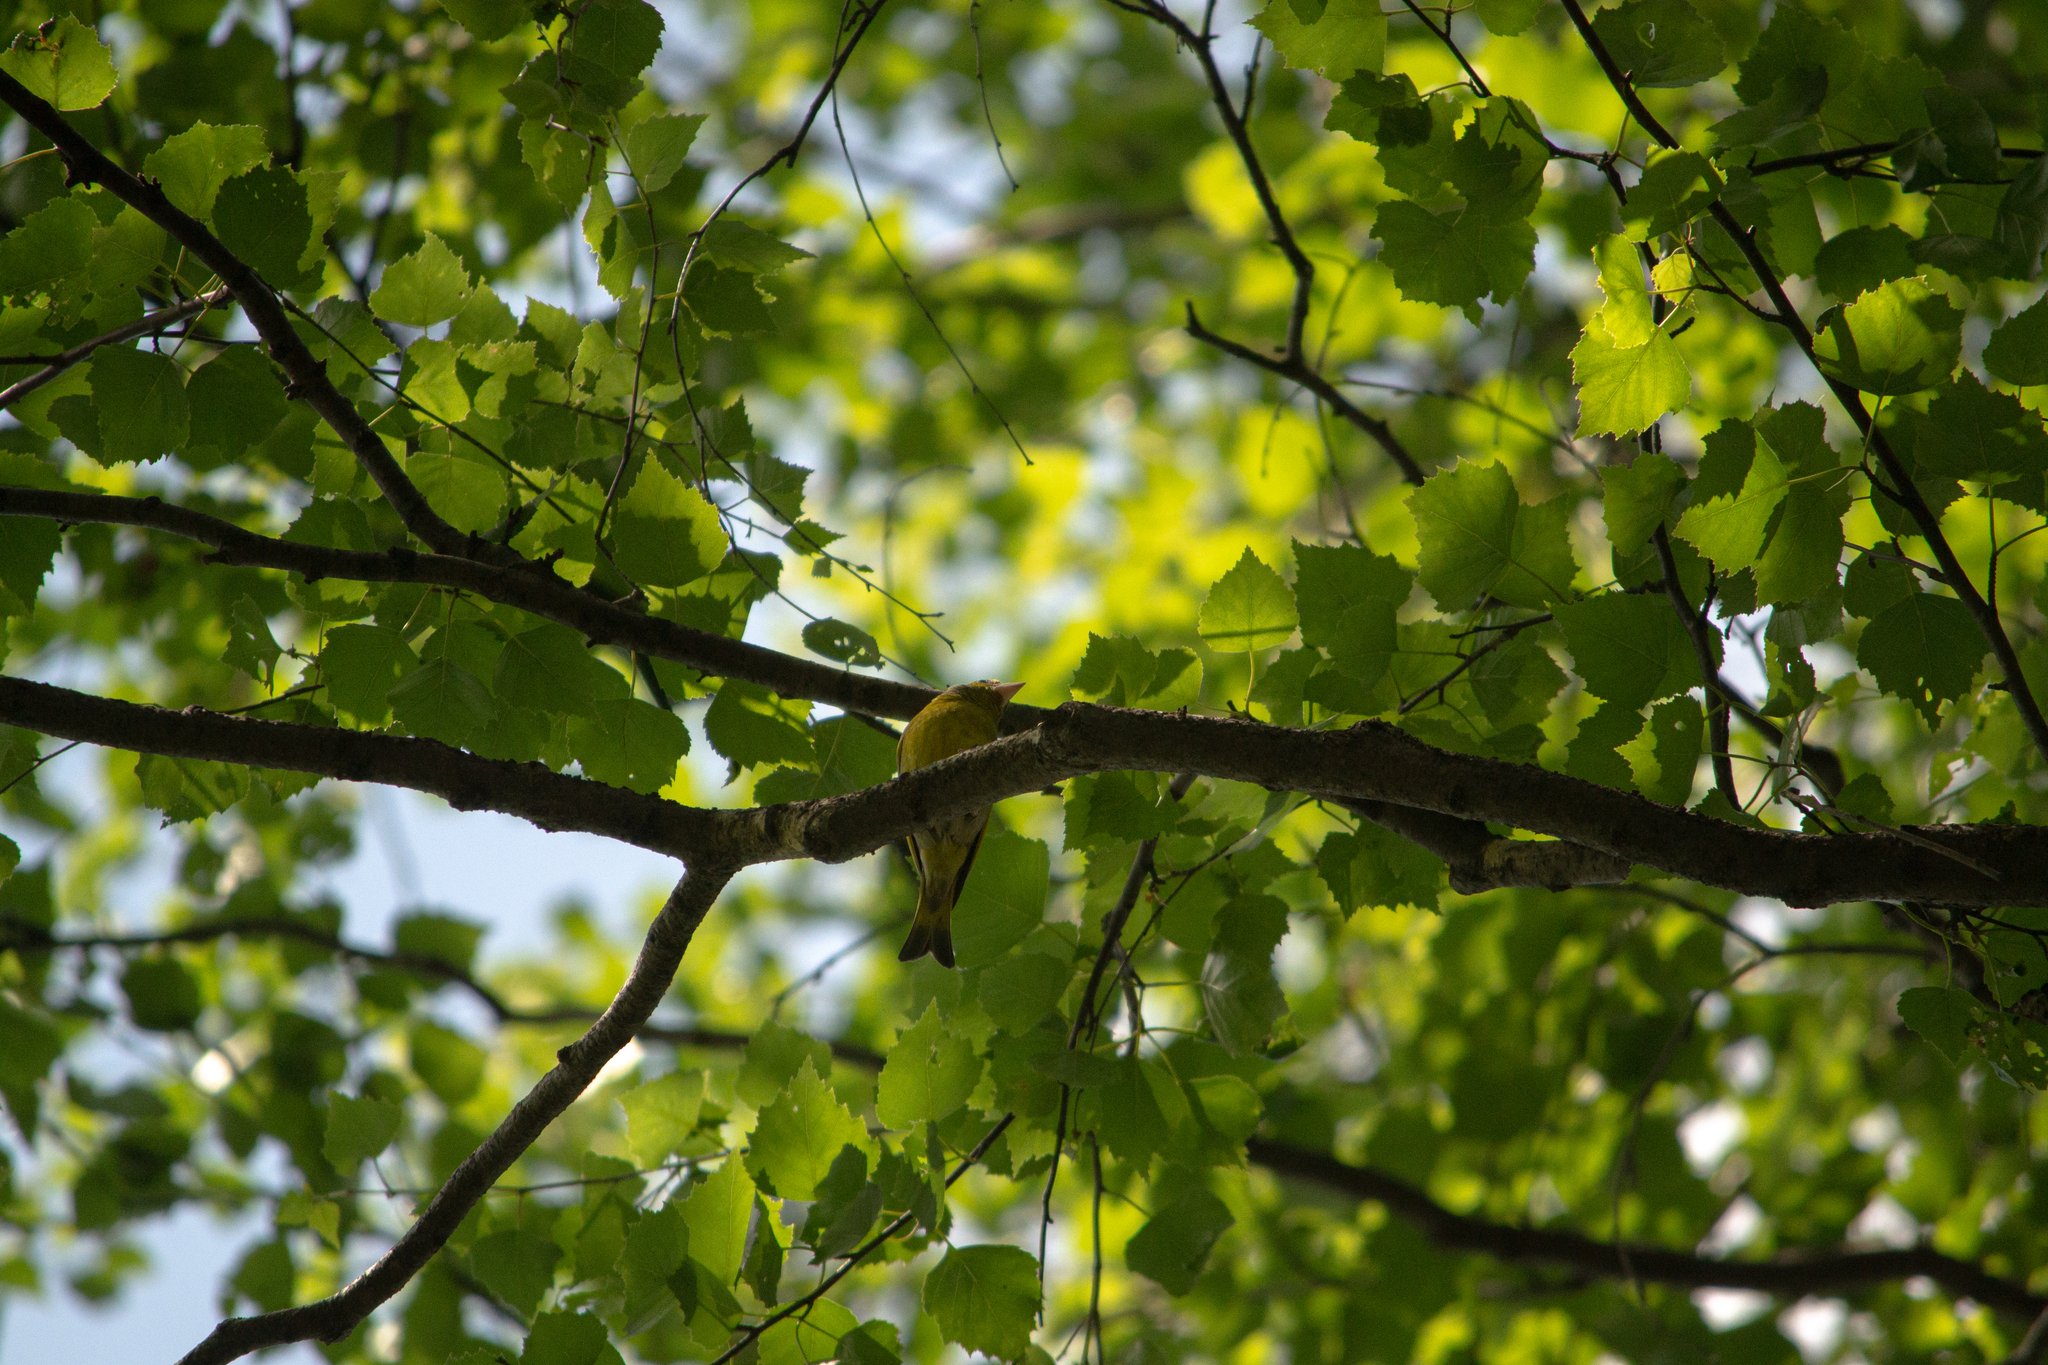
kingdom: Plantae
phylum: Tracheophyta
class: Liliopsida
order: Poales
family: Poaceae
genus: Chloris
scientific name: Chloris chloris
